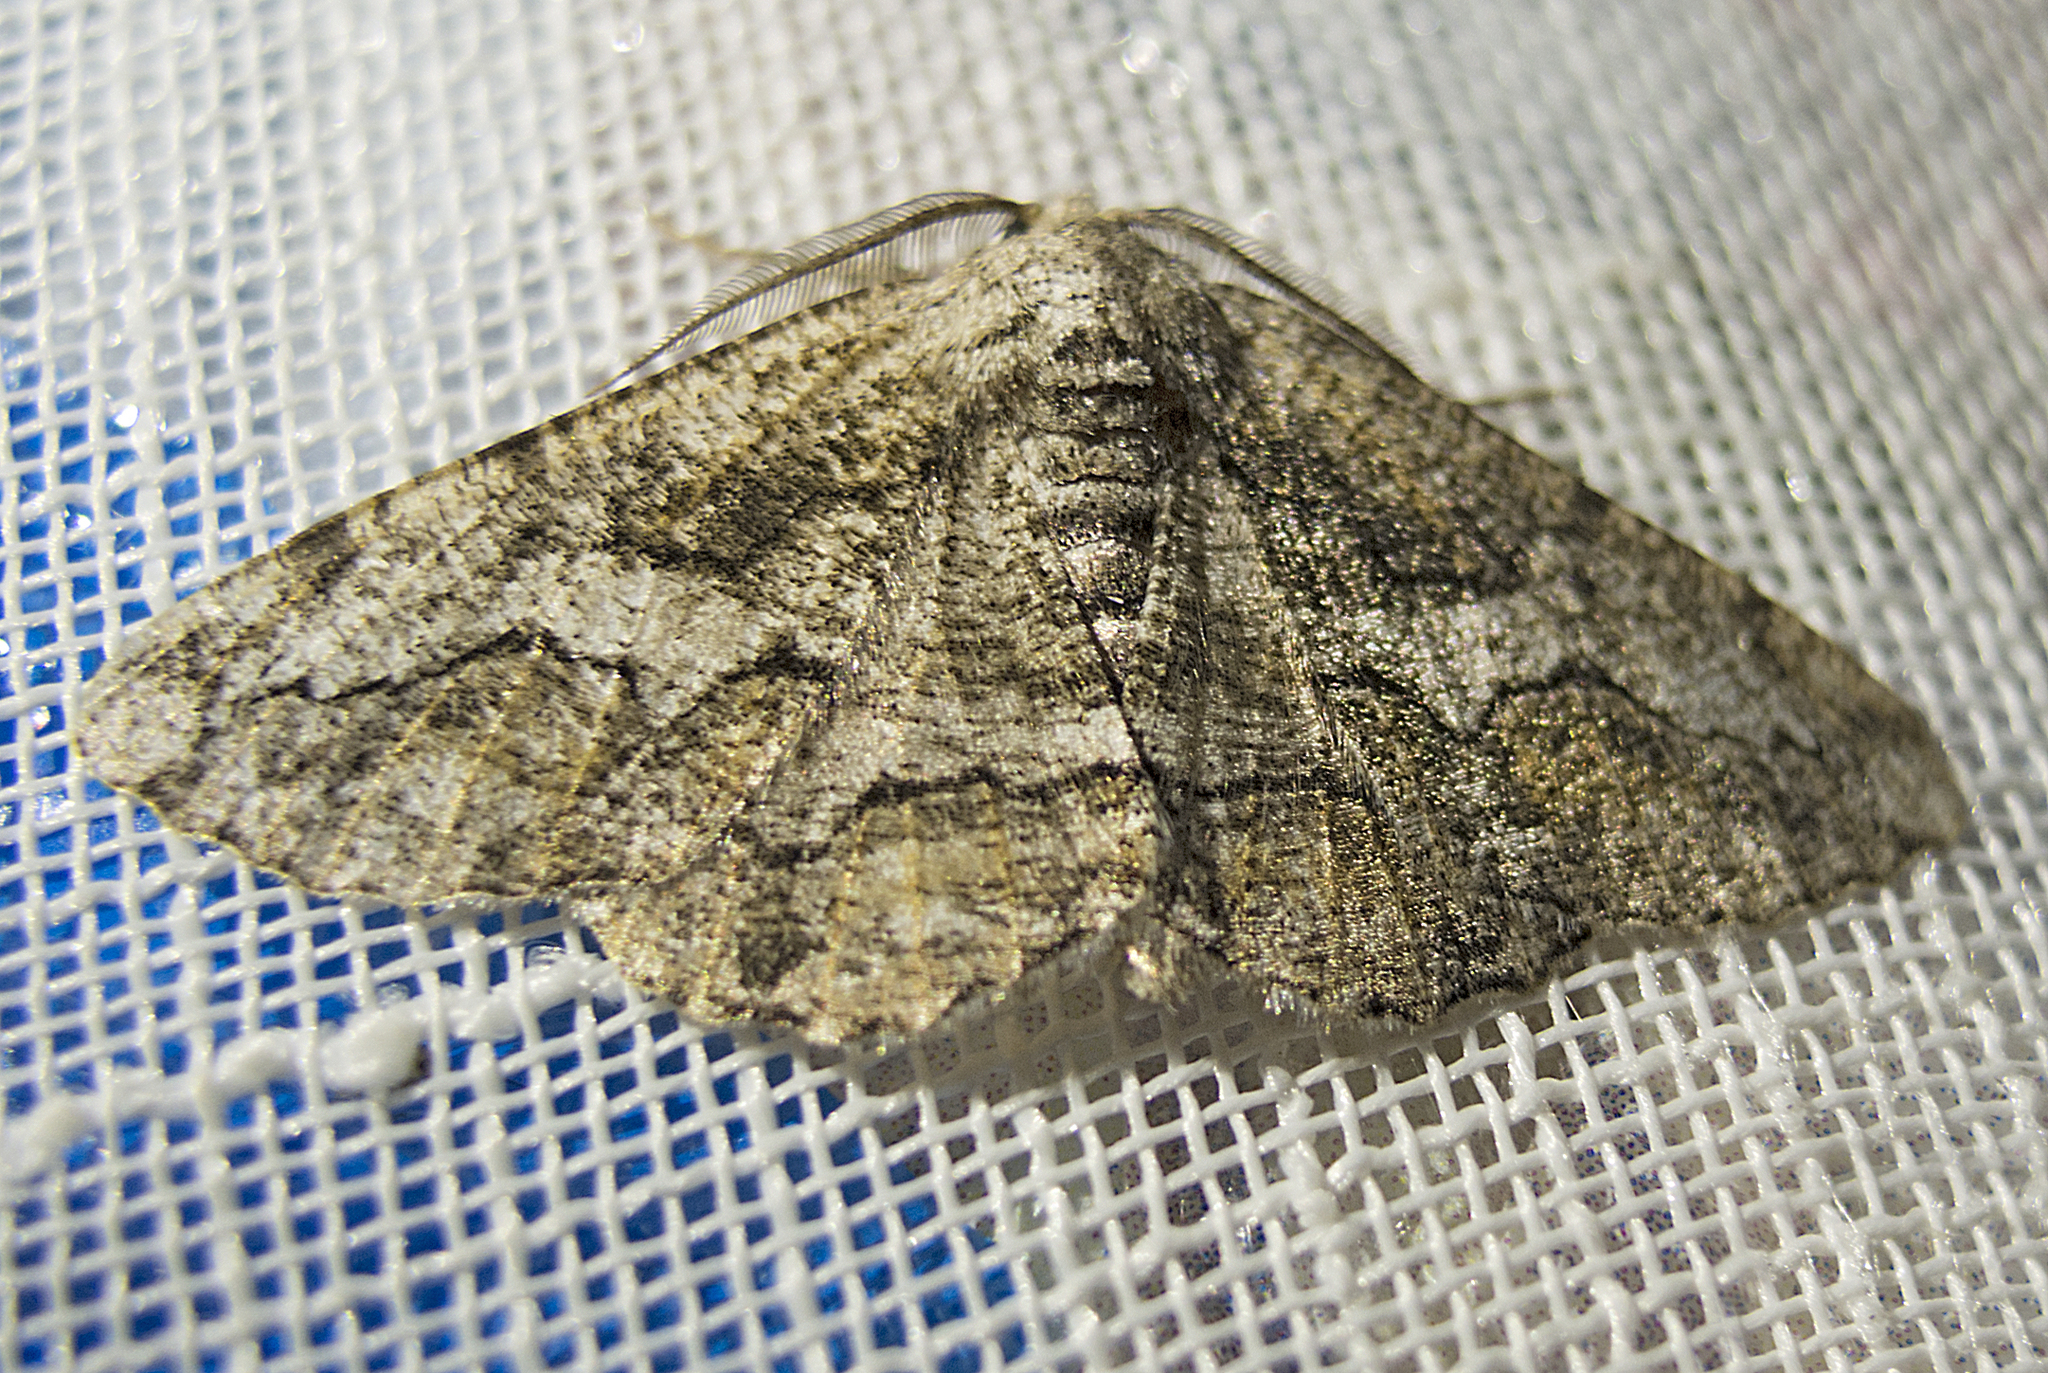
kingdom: Animalia
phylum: Arthropoda
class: Insecta
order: Lepidoptera
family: Geometridae
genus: Synopsia
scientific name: Synopsia sociaria
